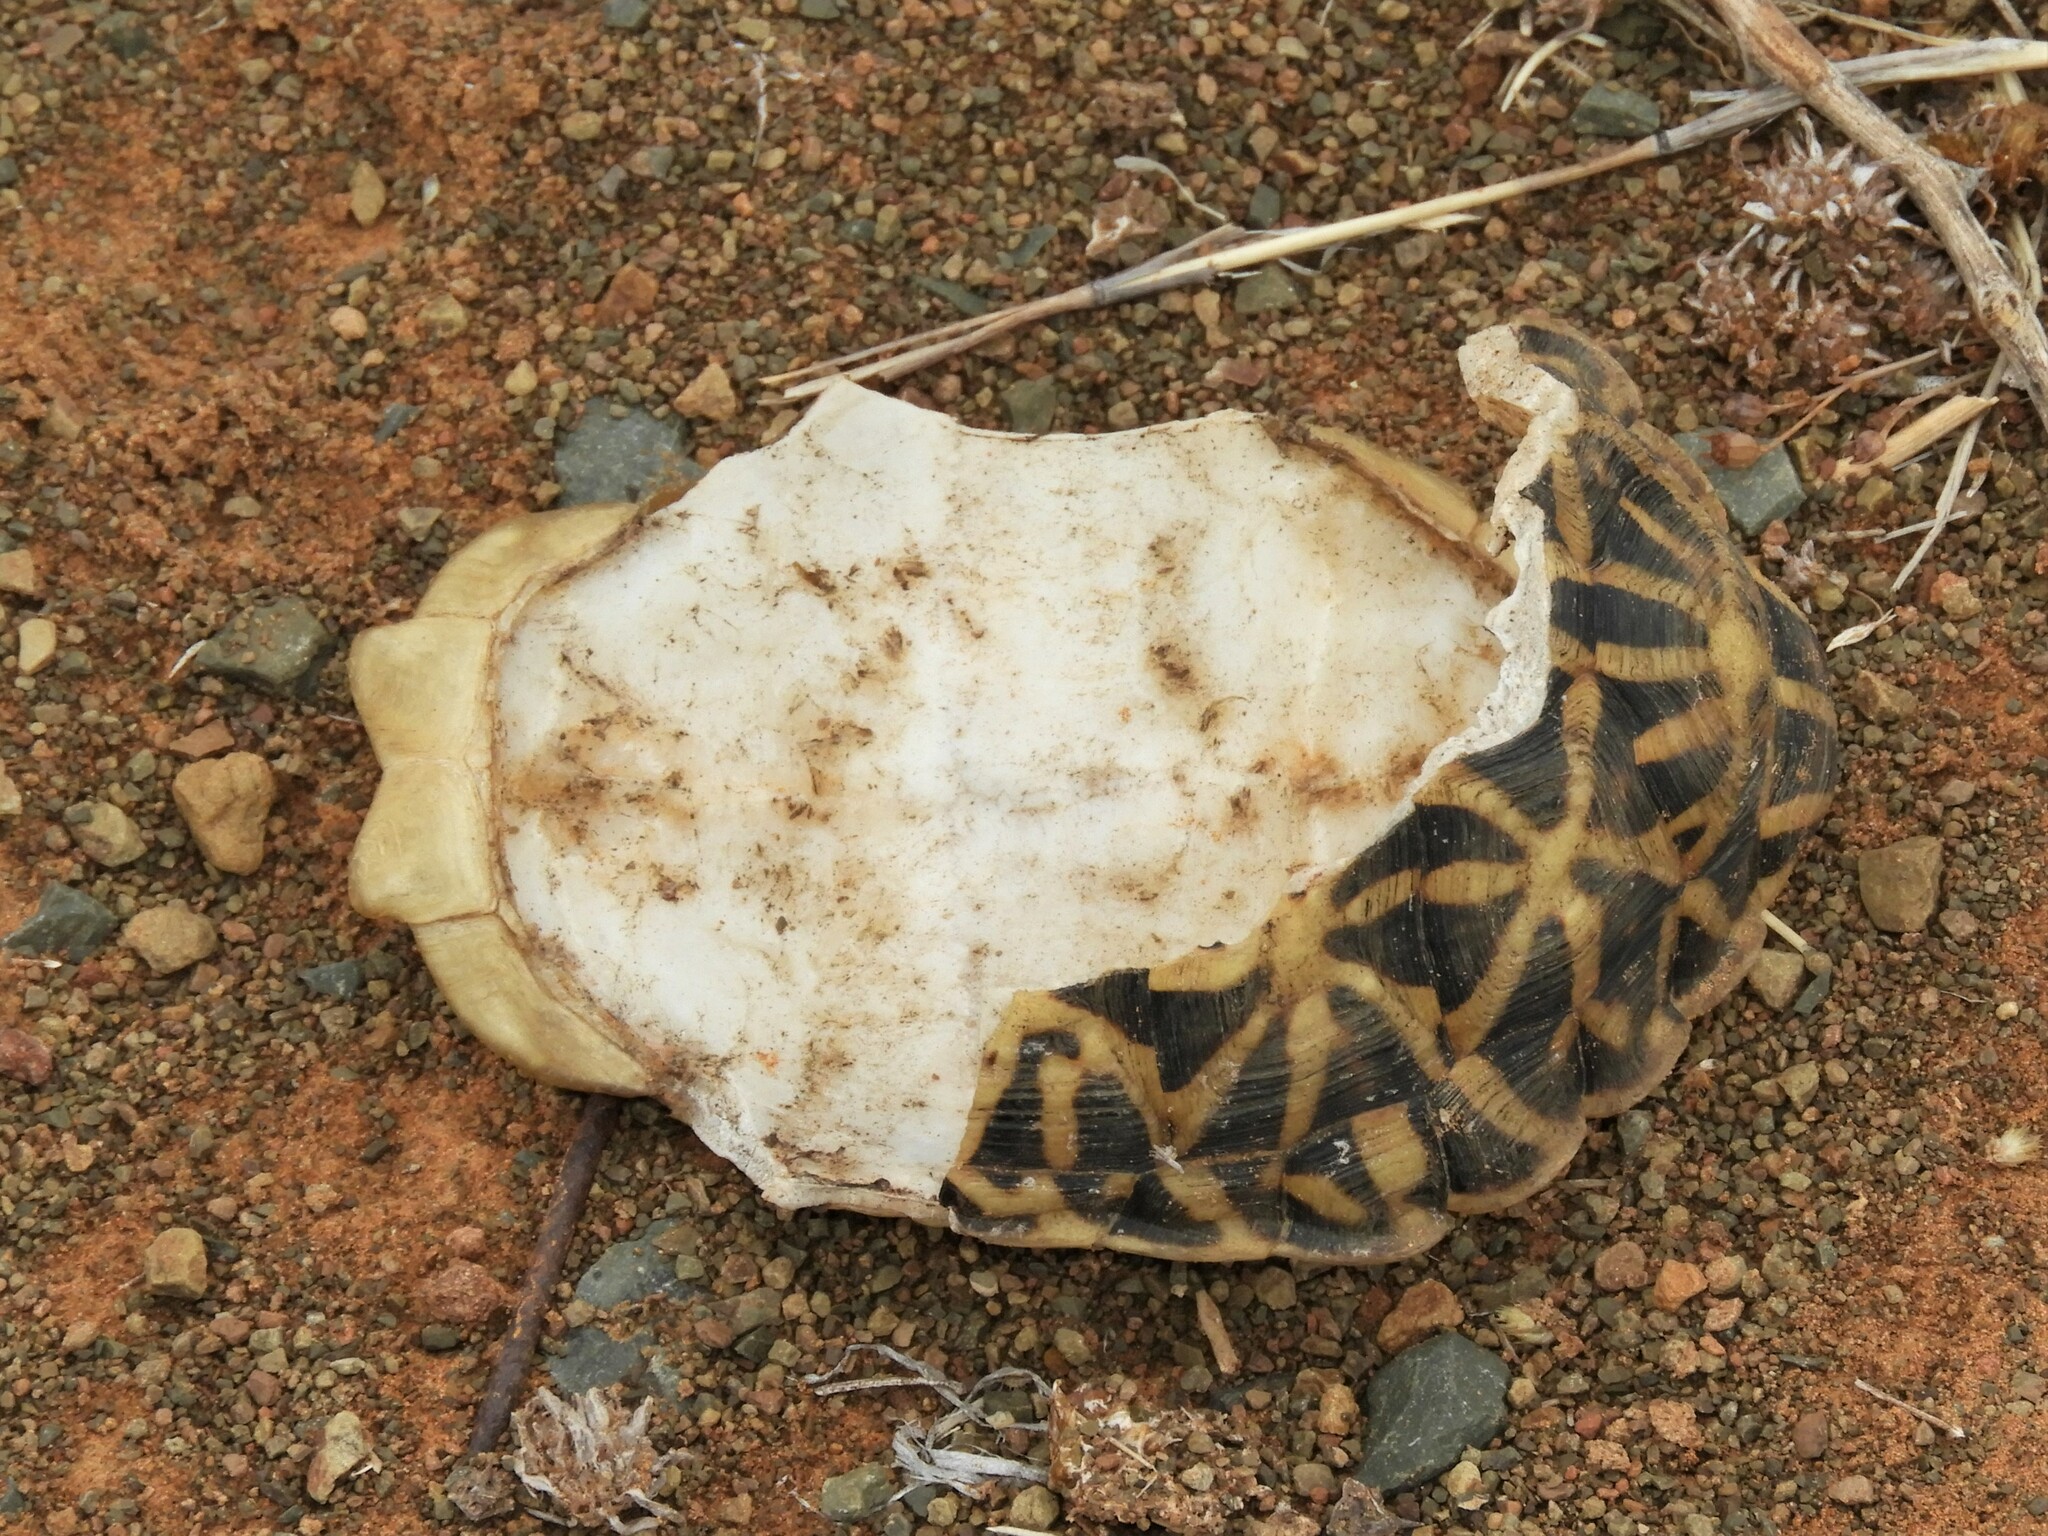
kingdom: Animalia
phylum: Chordata
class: Testudines
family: Testudinidae
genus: Psammobates
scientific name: Psammobates tentorius
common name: Tent tortoise
